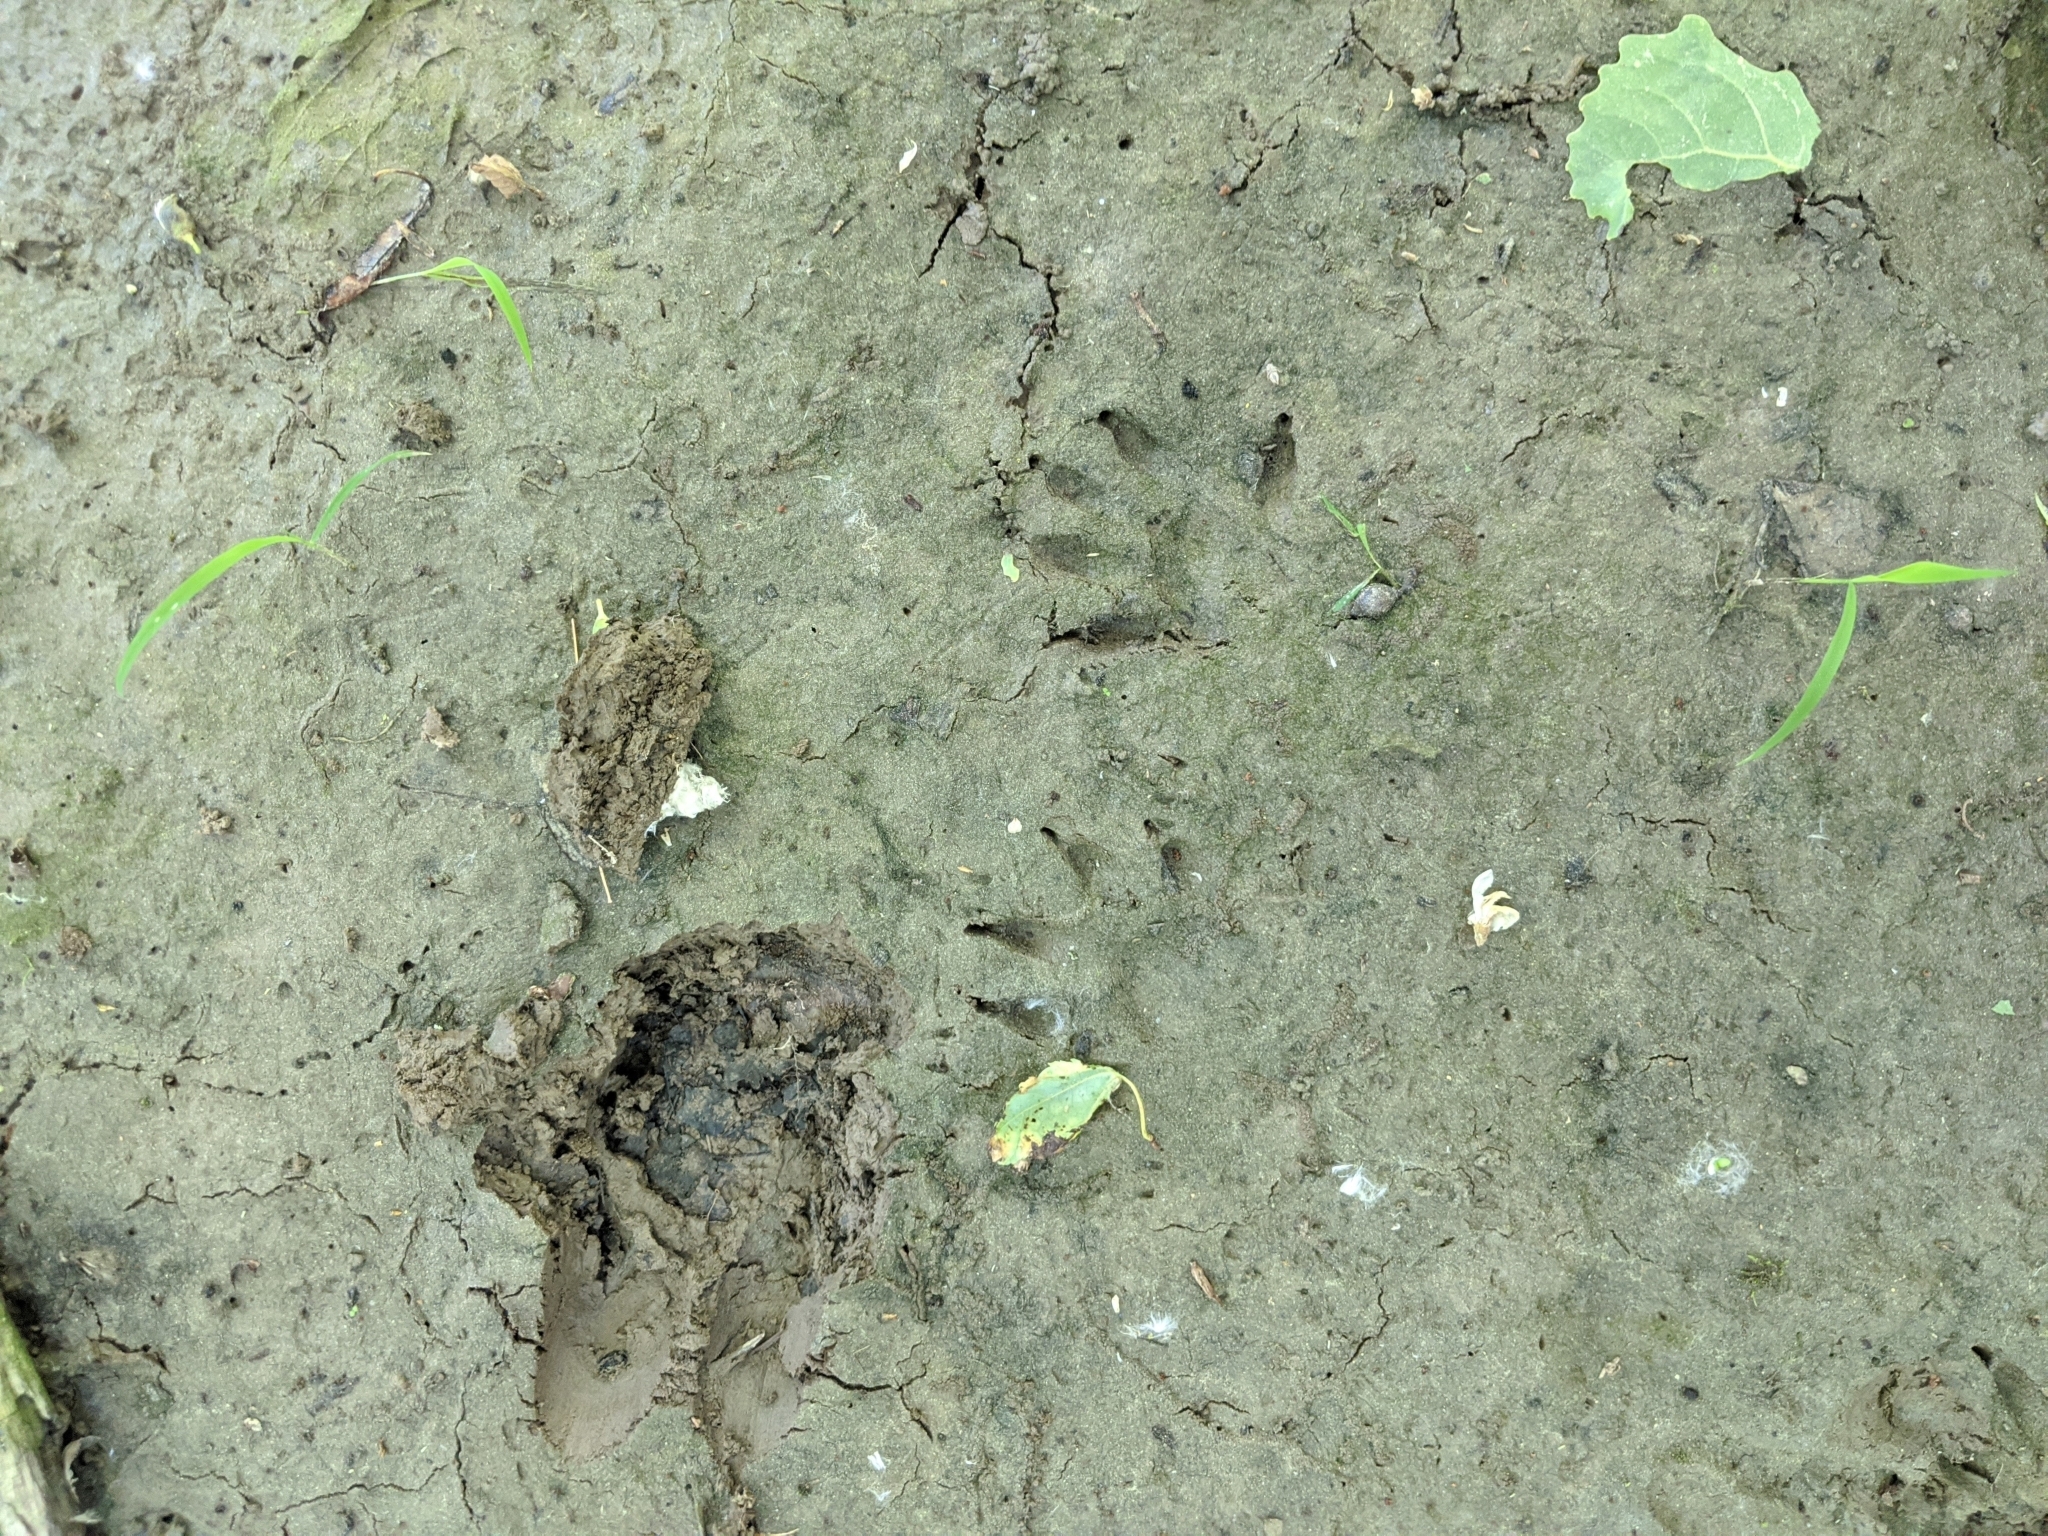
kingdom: Animalia
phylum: Chordata
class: Mammalia
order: Carnivora
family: Procyonidae
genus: Procyon
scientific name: Procyon lotor
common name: Raccoon
